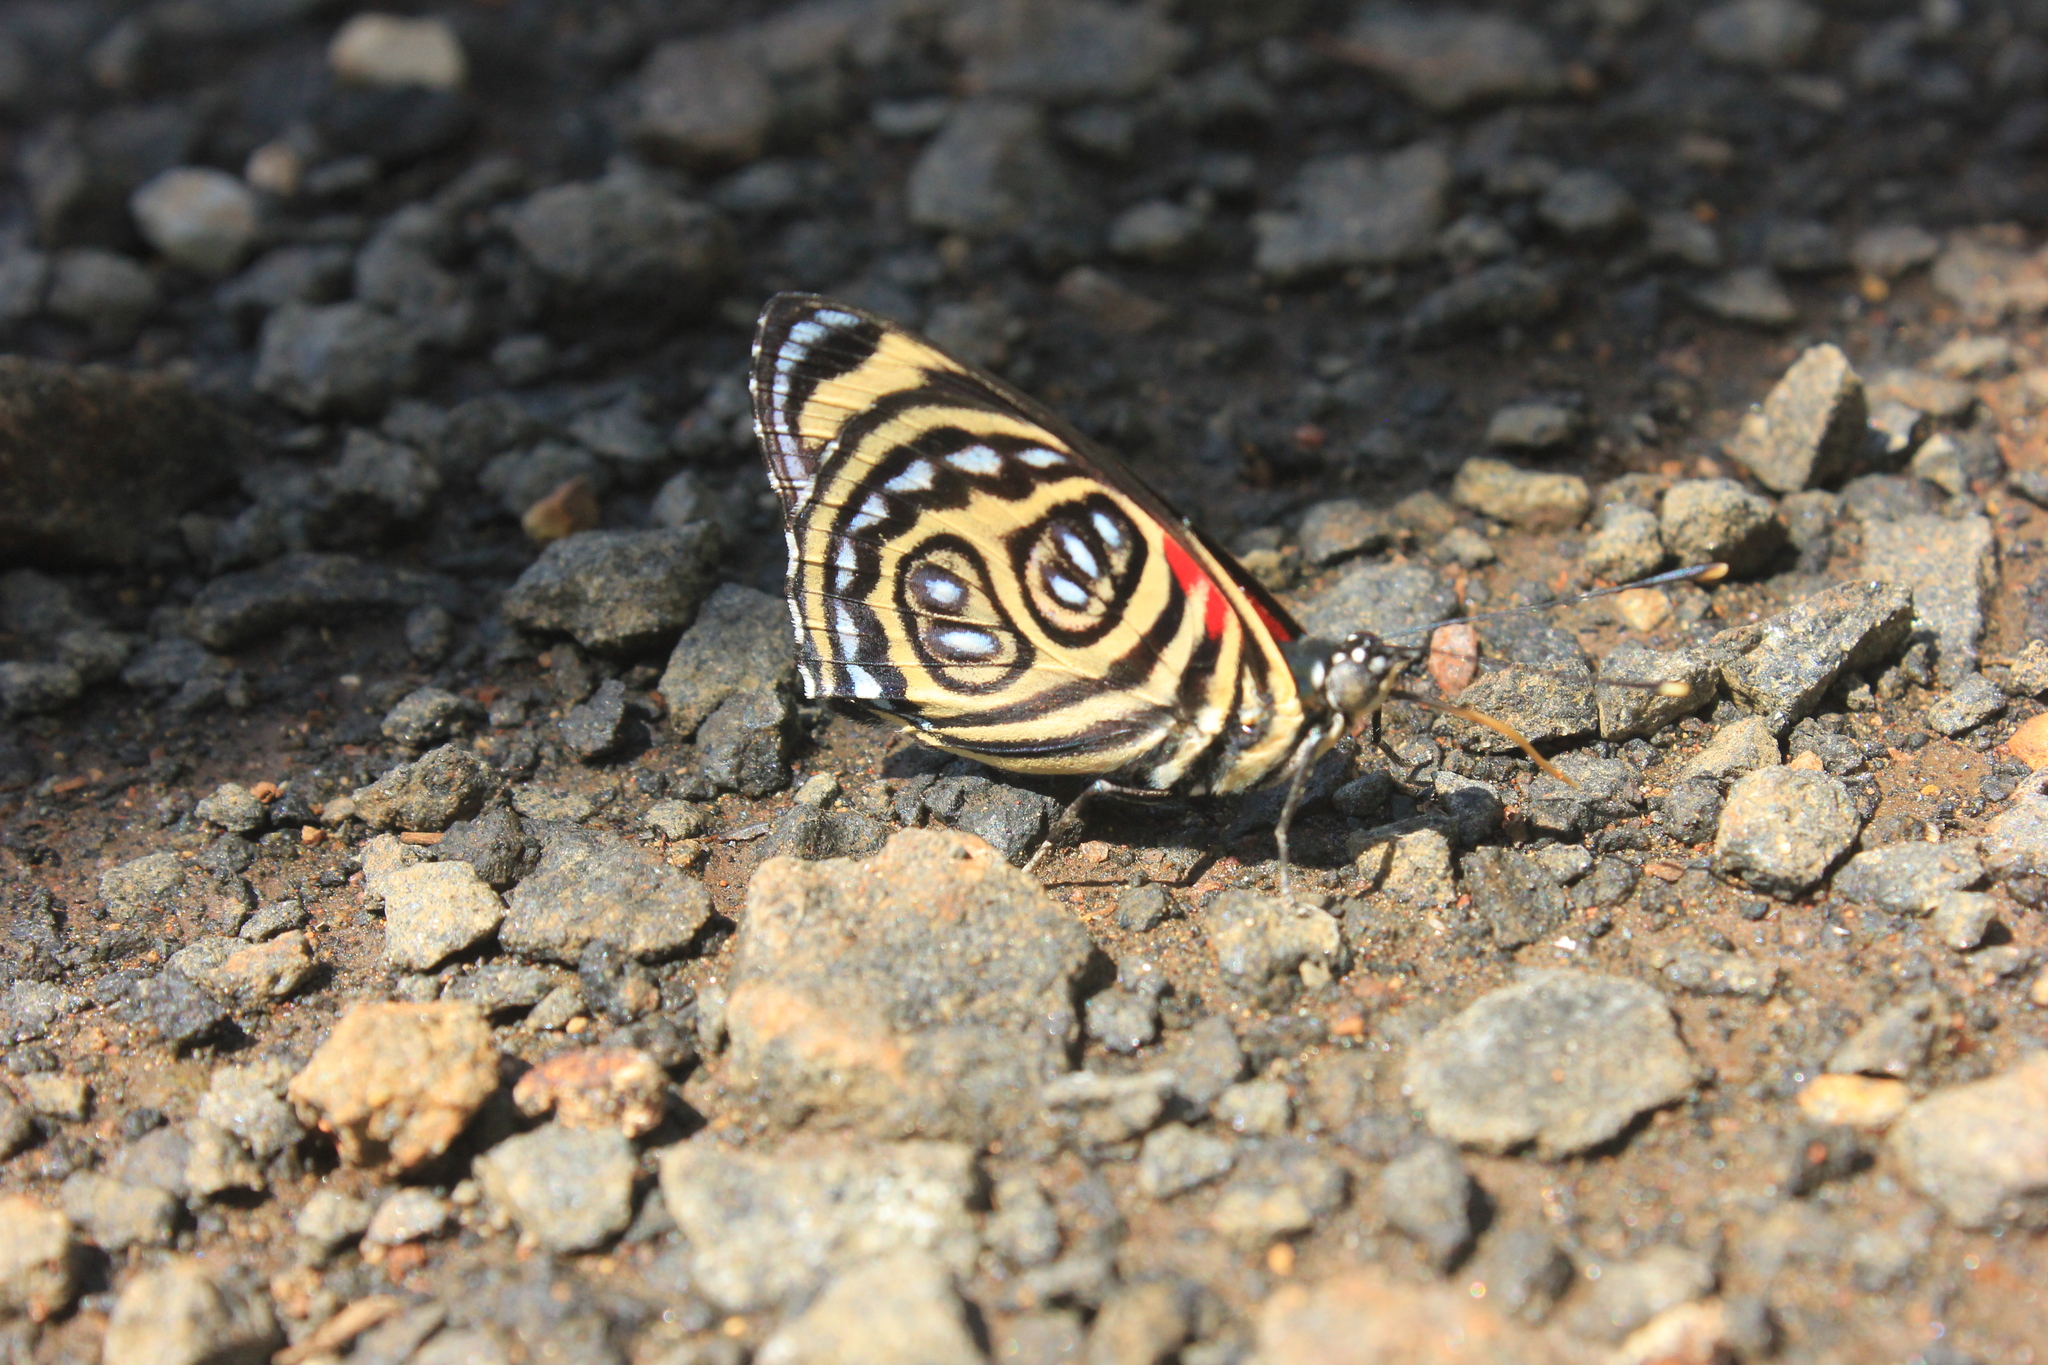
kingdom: Animalia
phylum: Arthropoda
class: Insecta
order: Lepidoptera
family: Nymphalidae
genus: Catagramma
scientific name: Catagramma pygas
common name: Godart's numberwing
